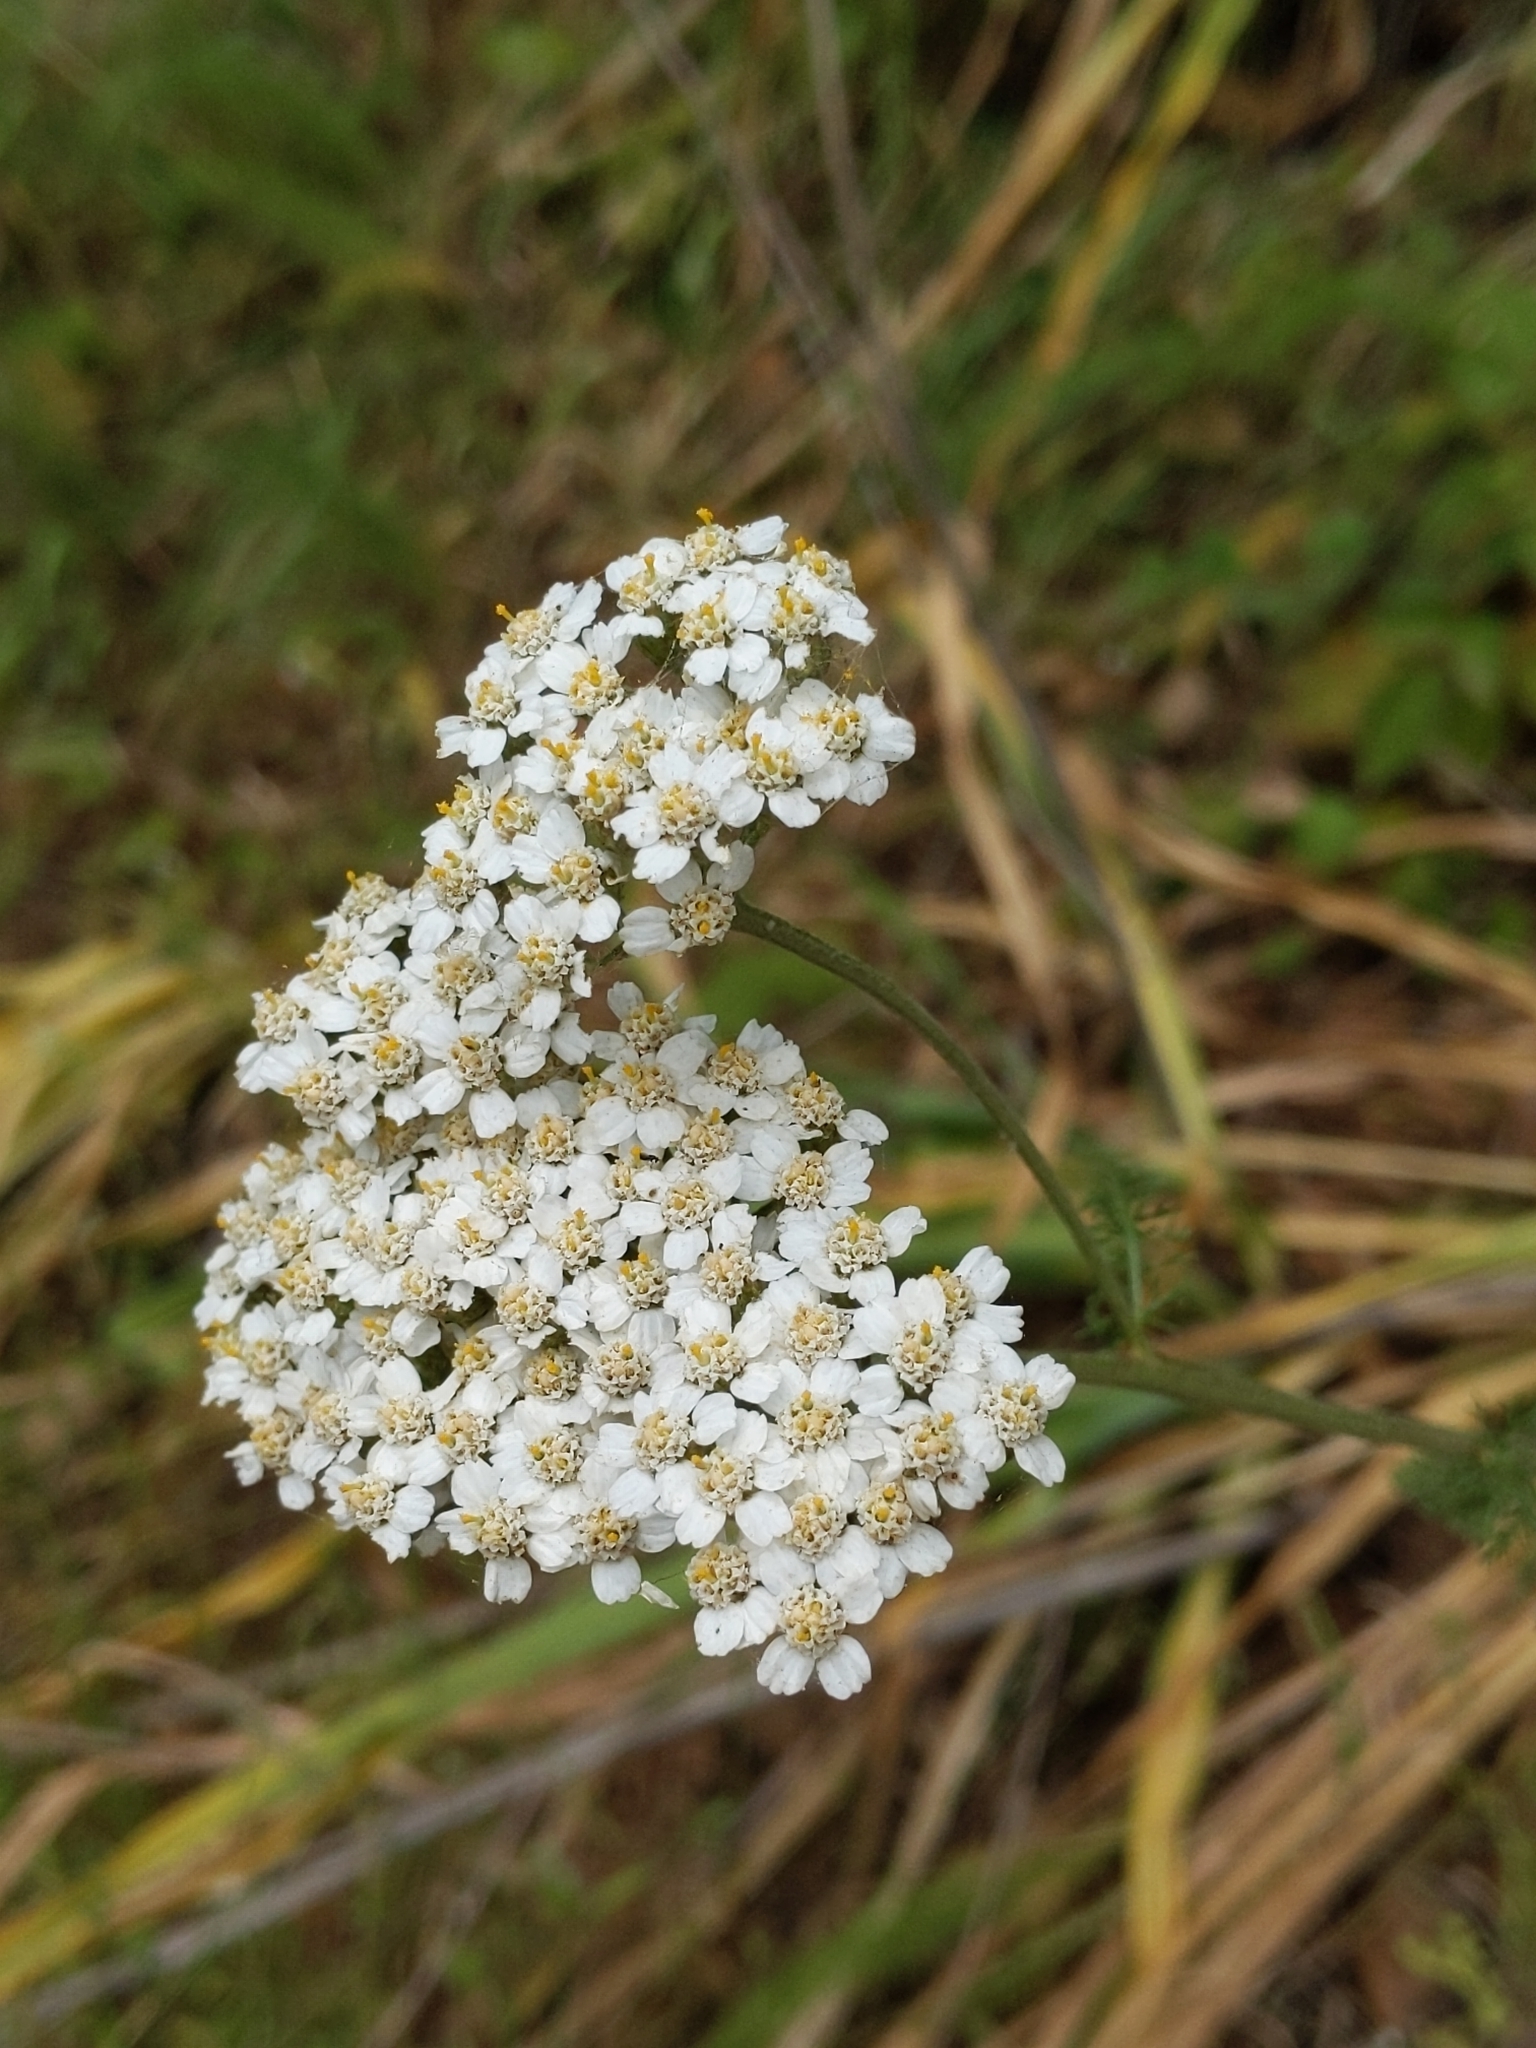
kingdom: Plantae
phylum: Tracheophyta
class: Magnoliopsida
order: Asterales
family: Asteraceae
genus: Achillea
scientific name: Achillea millefolium
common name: Yarrow
